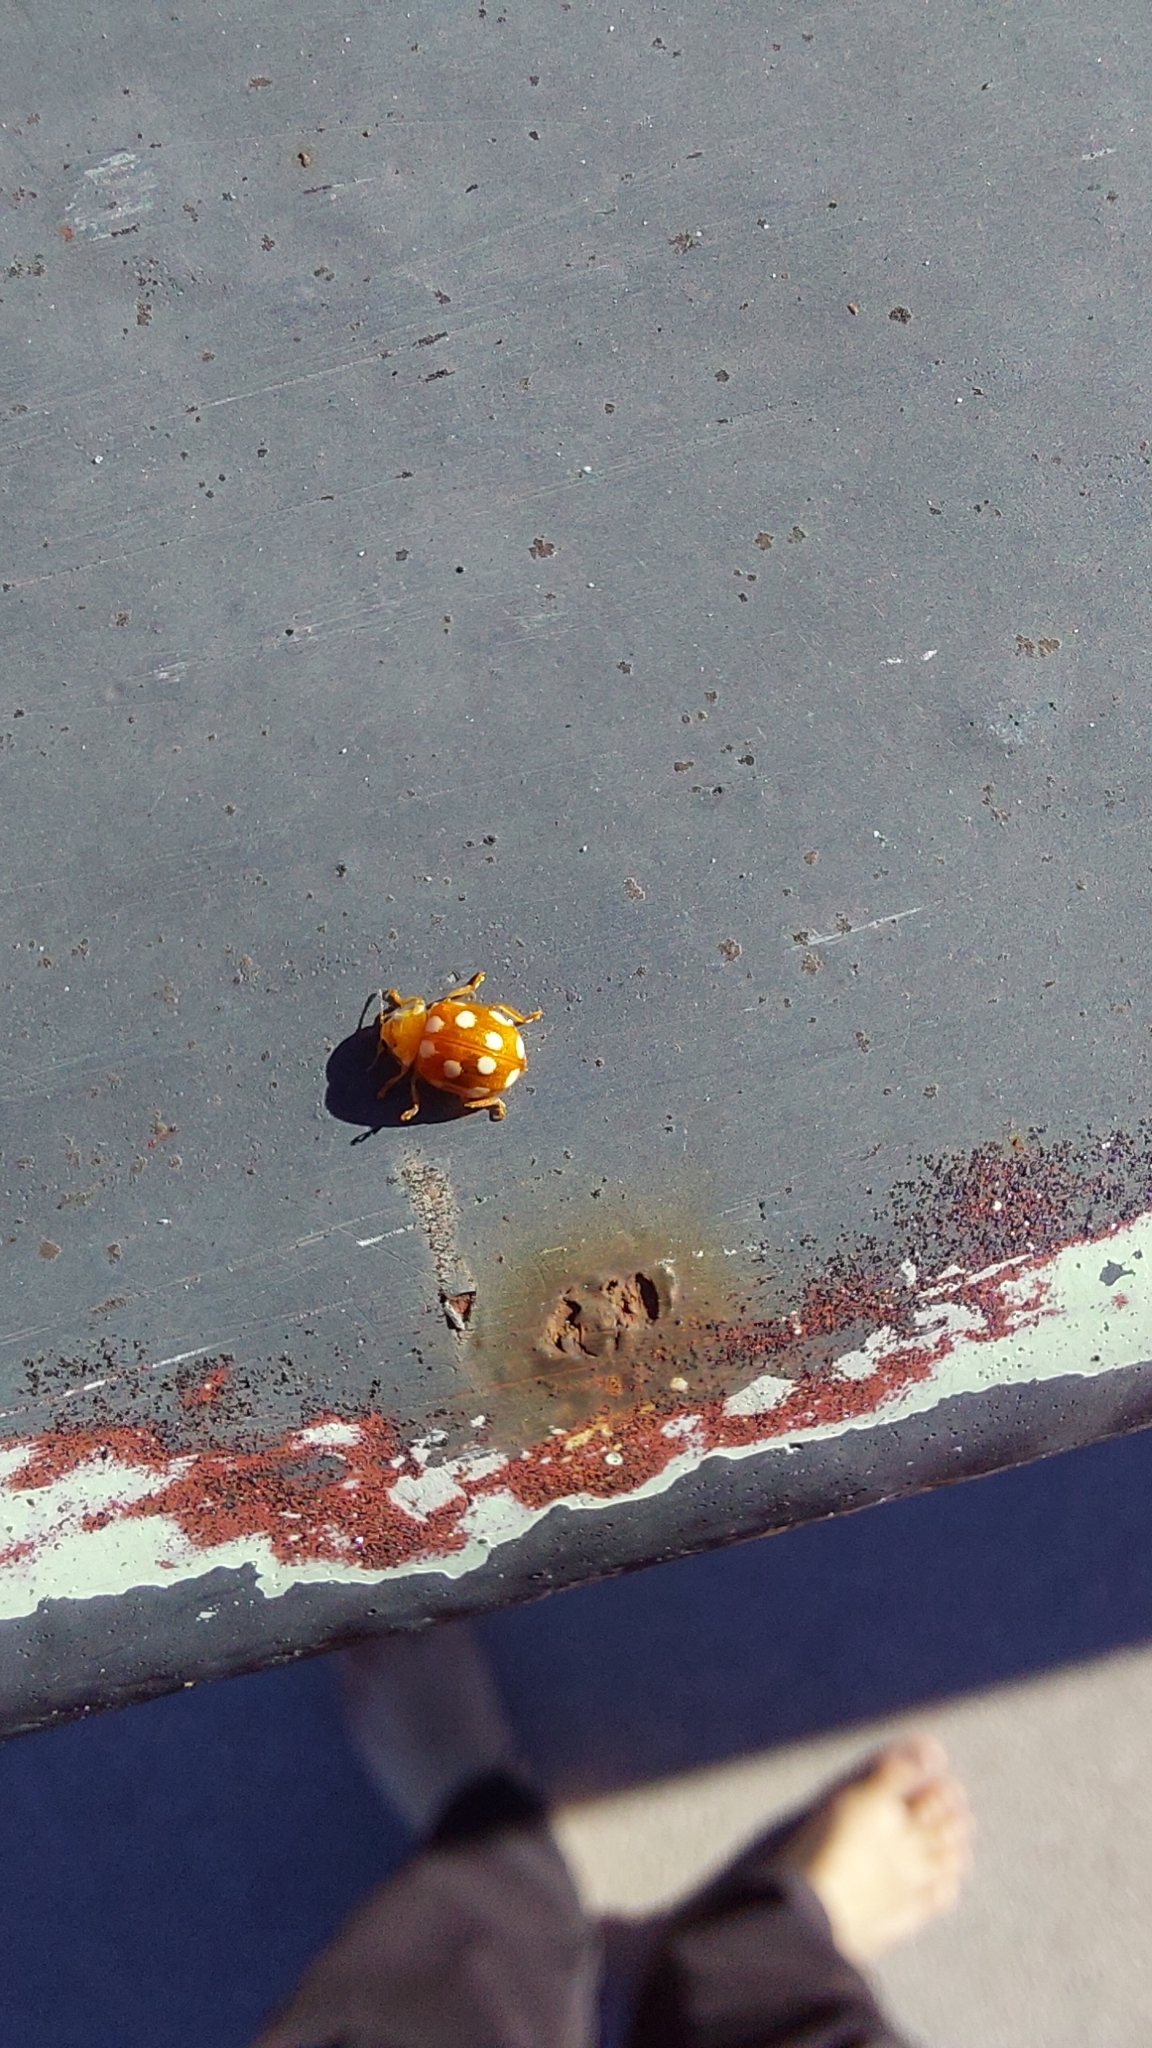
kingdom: Animalia
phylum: Arthropoda
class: Insecta
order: Coleoptera
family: Coccinellidae
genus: Vibidia
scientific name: Vibidia duodecimguttata
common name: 12-spot ladybird
